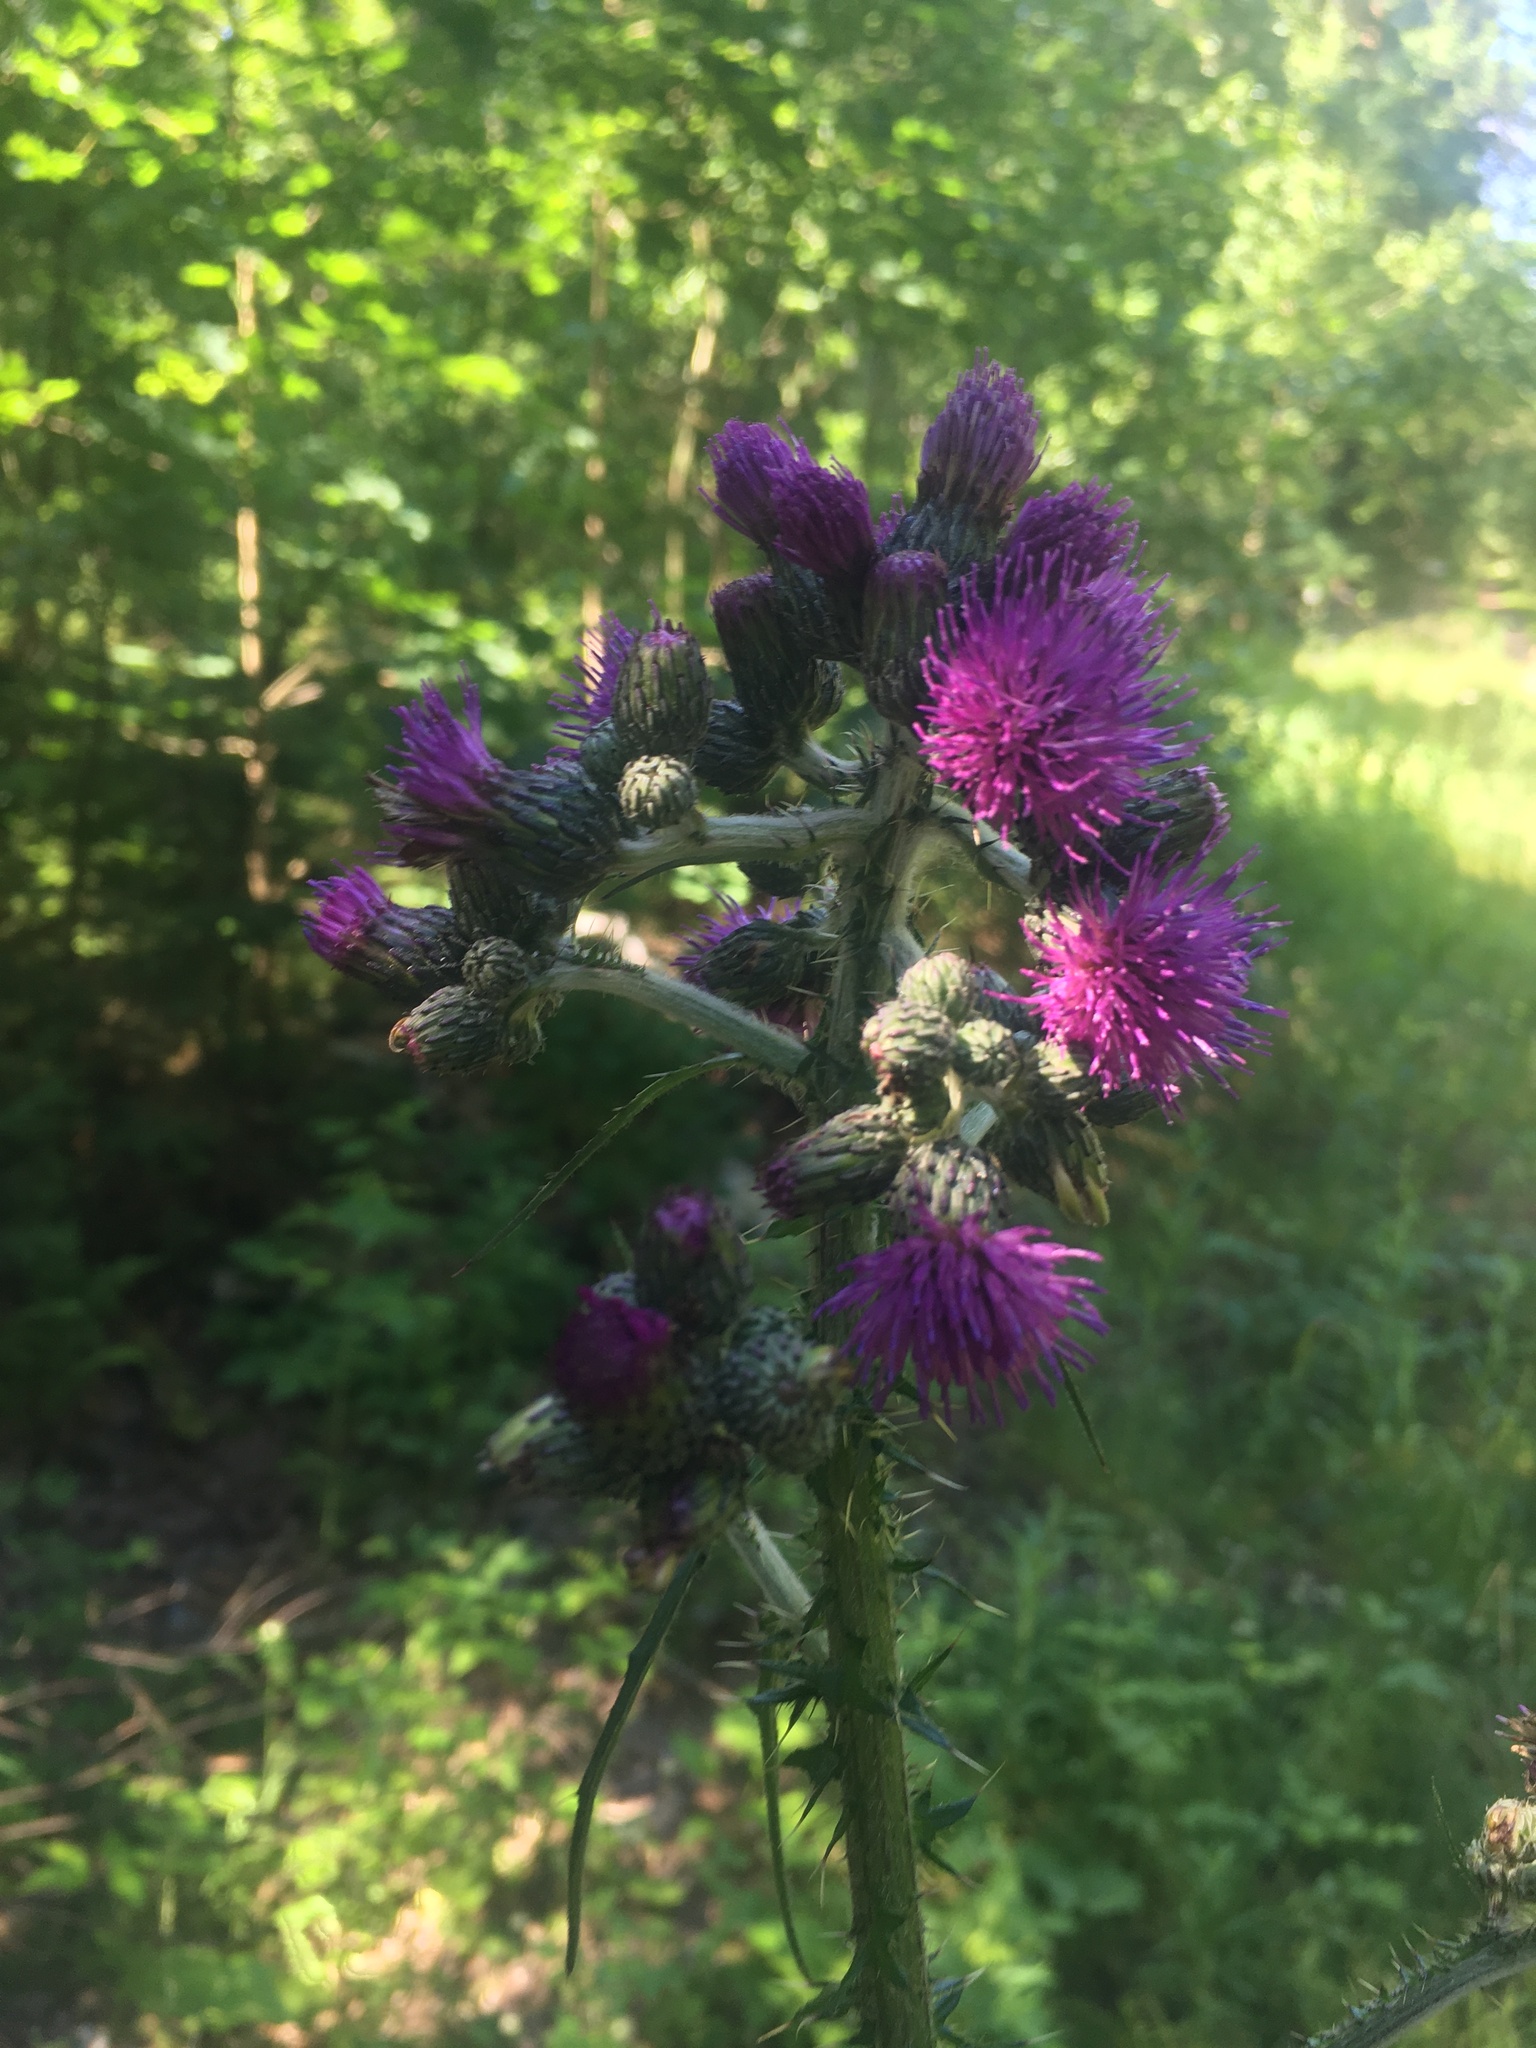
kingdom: Plantae
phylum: Tracheophyta
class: Magnoliopsida
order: Asterales
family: Asteraceae
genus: Cirsium
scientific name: Cirsium palustre
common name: Marsh thistle
